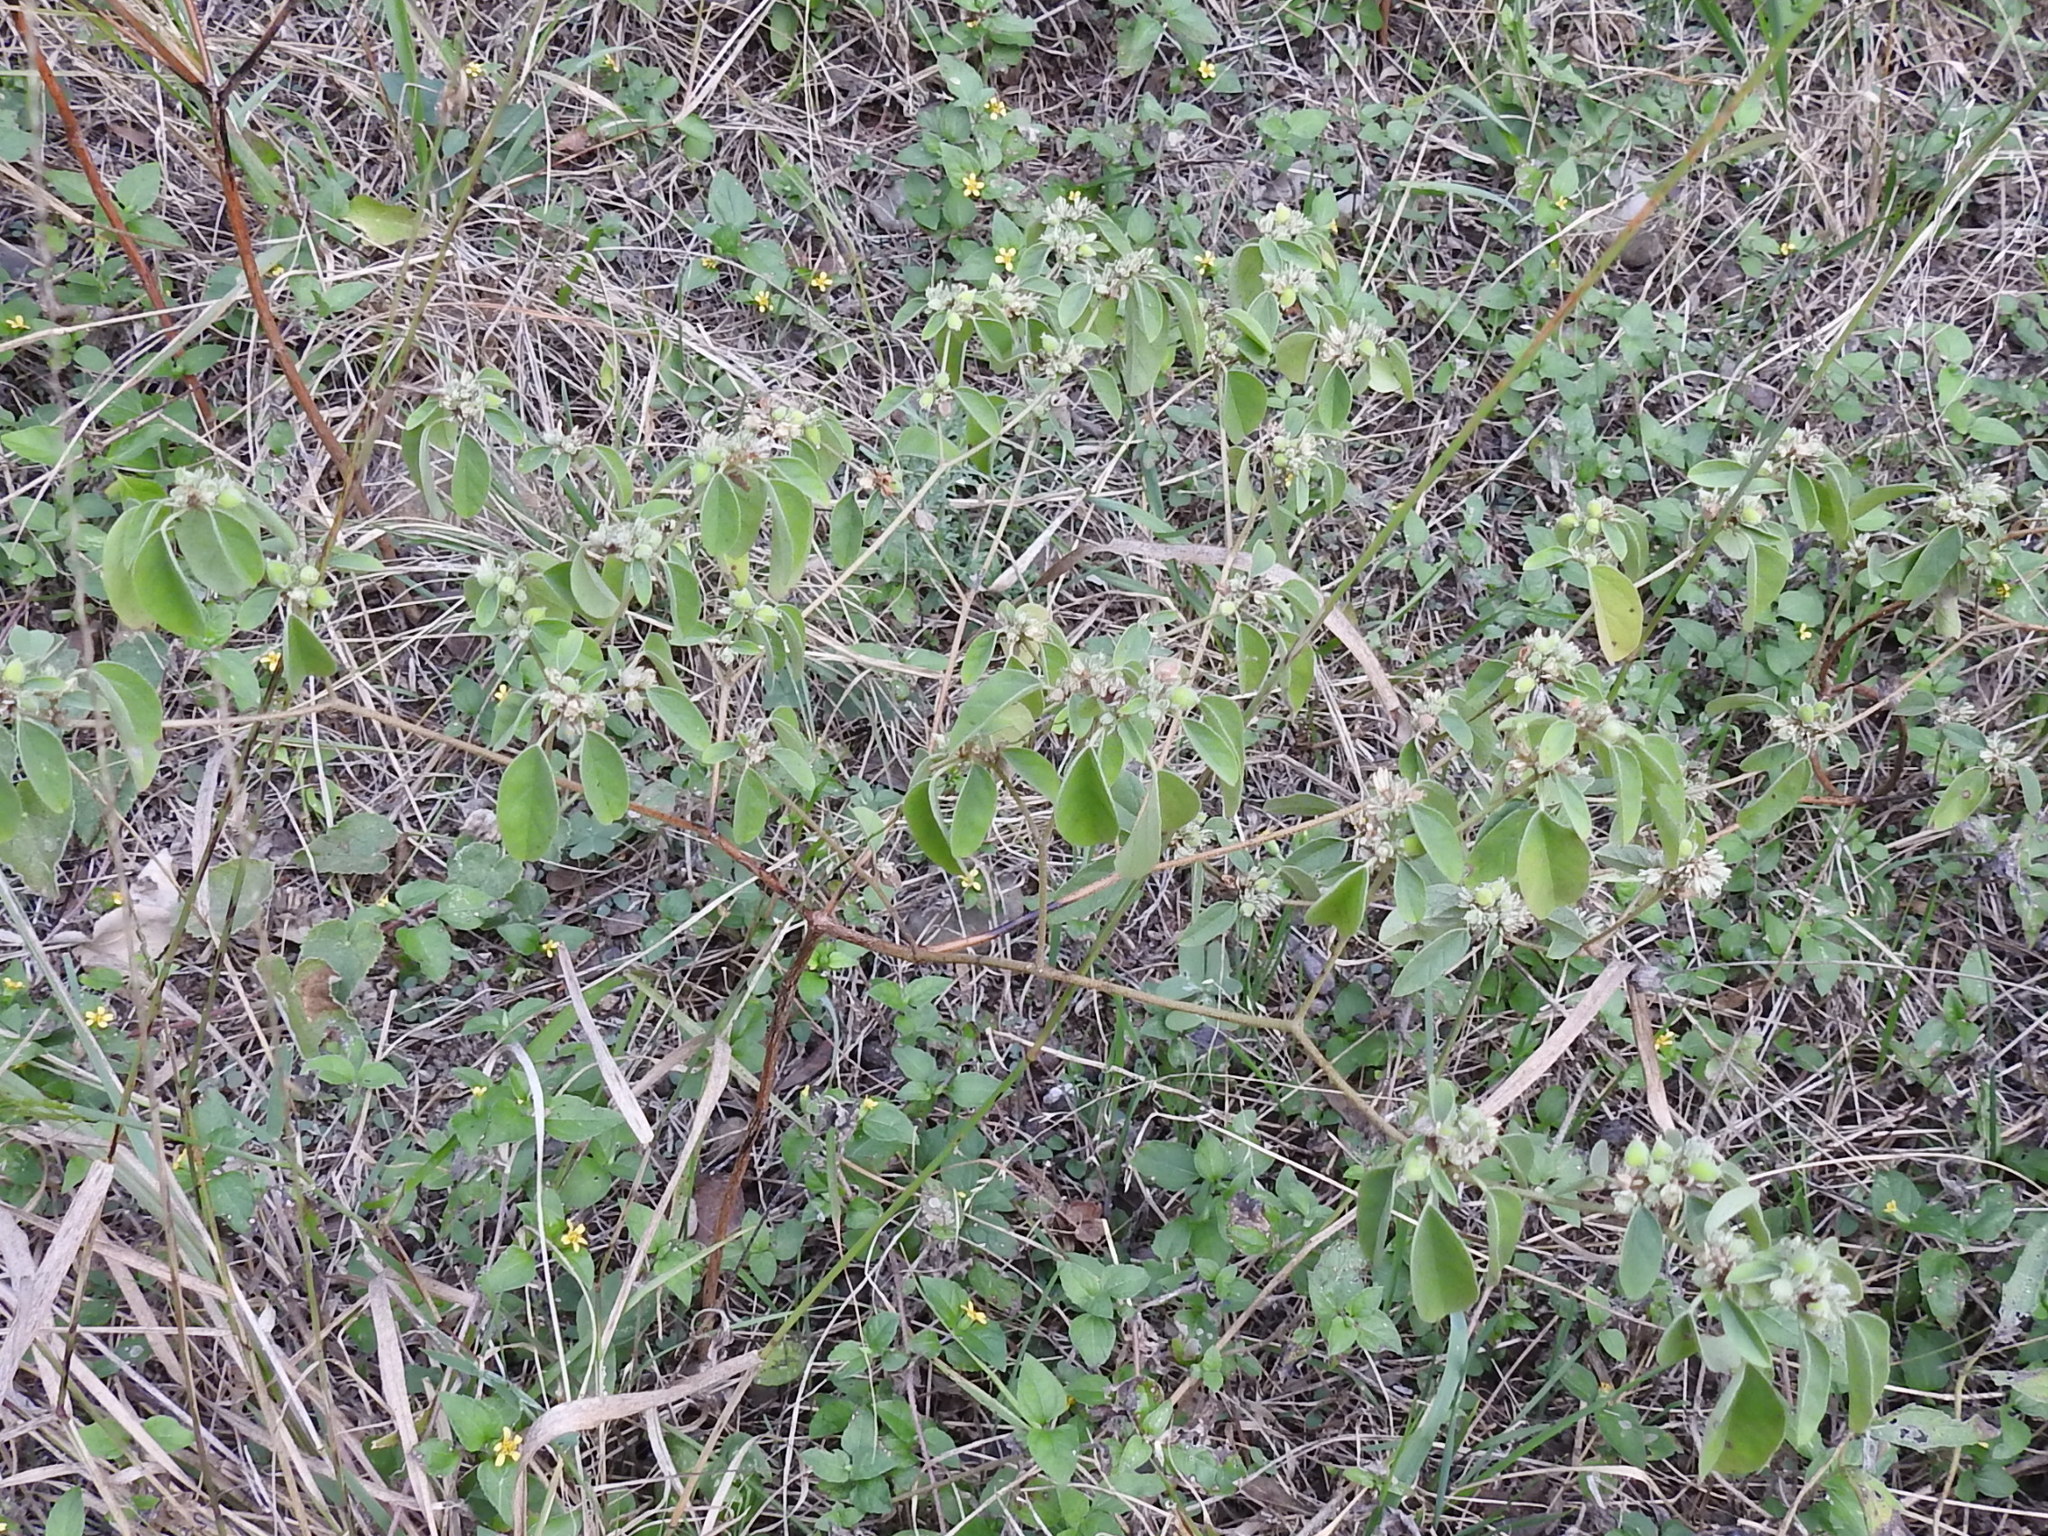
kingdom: Plantae
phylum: Tracheophyta
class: Magnoliopsida
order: Malpighiales
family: Euphorbiaceae
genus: Croton
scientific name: Croton monanthogynus
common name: One-seed croton
